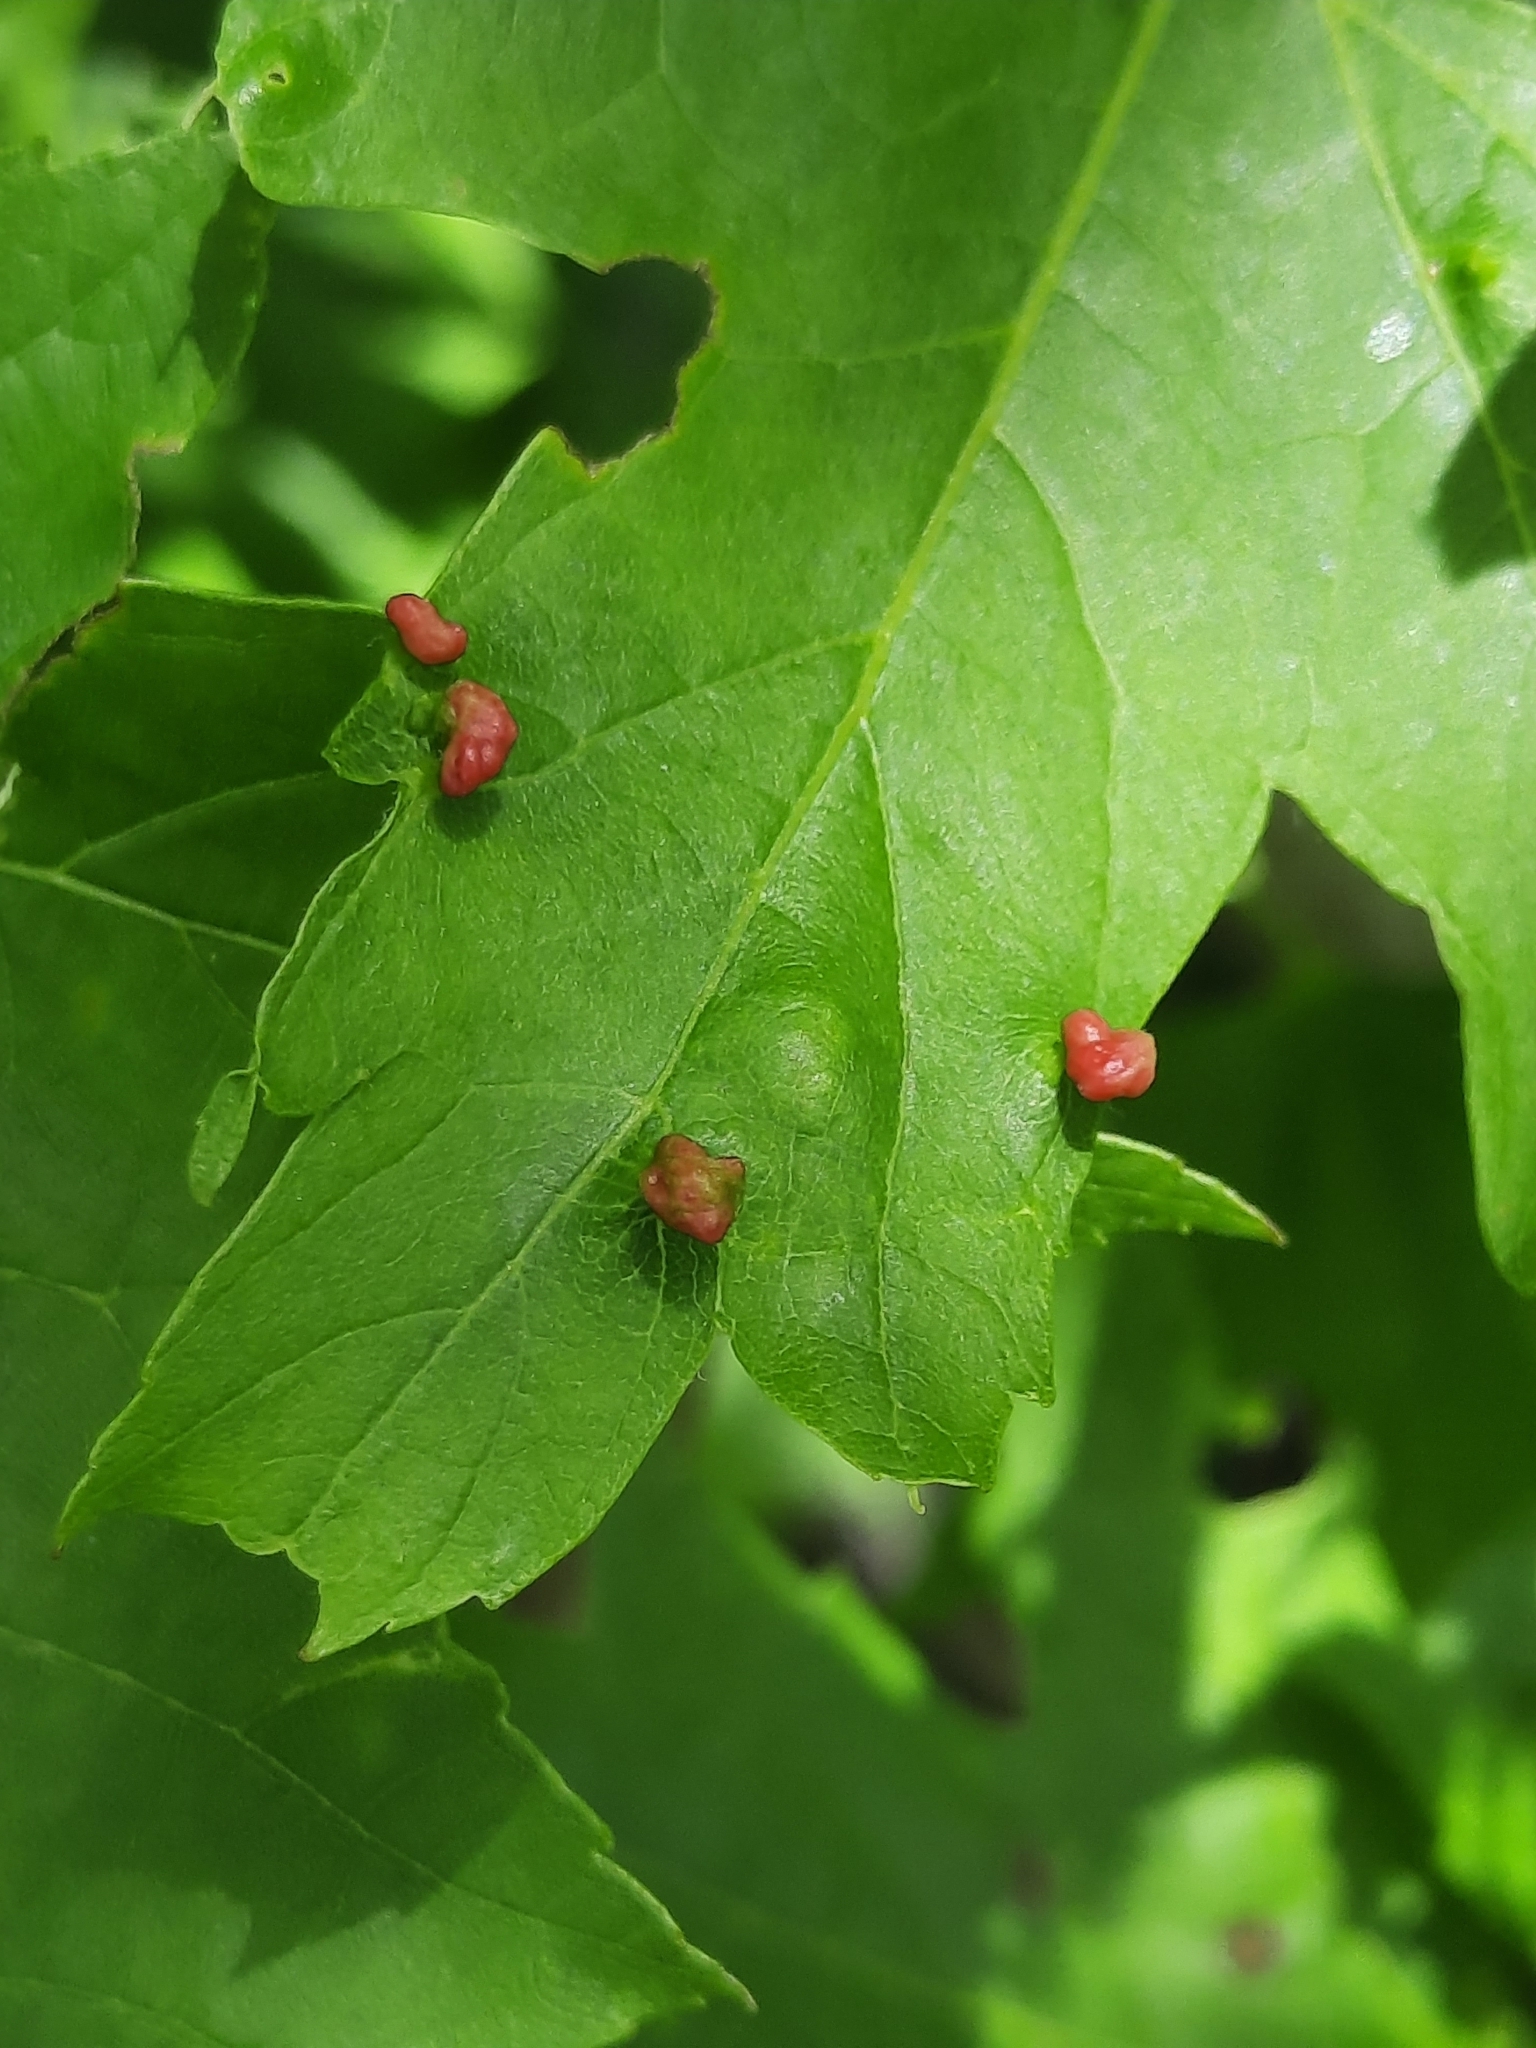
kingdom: Animalia
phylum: Arthropoda
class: Arachnida
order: Trombidiformes
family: Eriophyidae
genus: Vasates
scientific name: Vasates quadripedes
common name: Maple bladder gall mite
